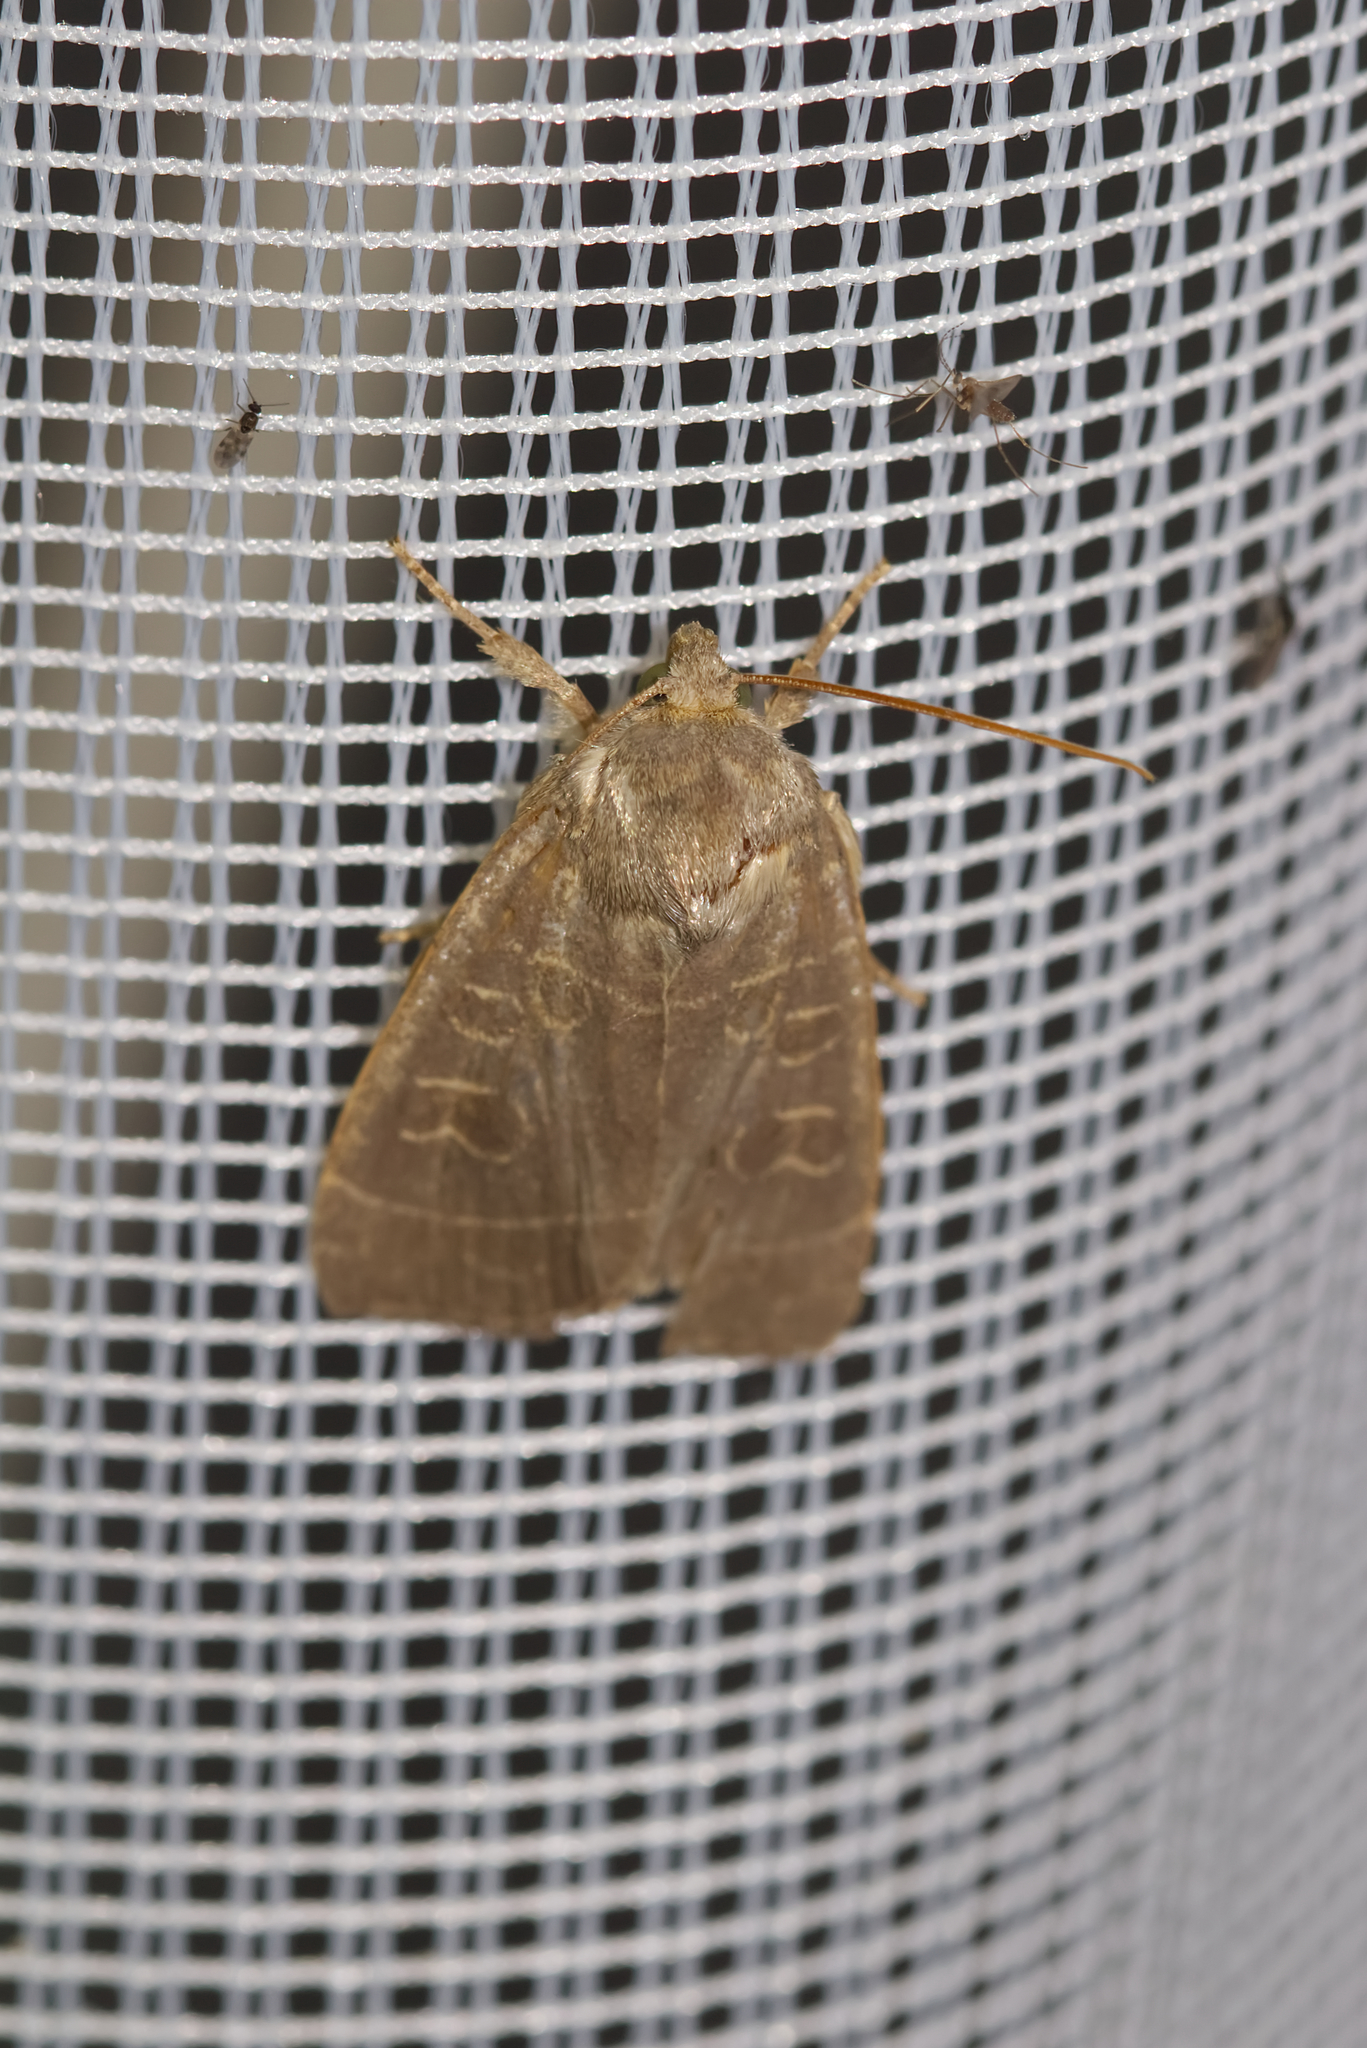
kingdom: Animalia
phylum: Arthropoda
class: Insecta
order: Lepidoptera
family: Noctuidae
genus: Ipimorpha
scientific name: Ipimorpha subtusa
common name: Olive
